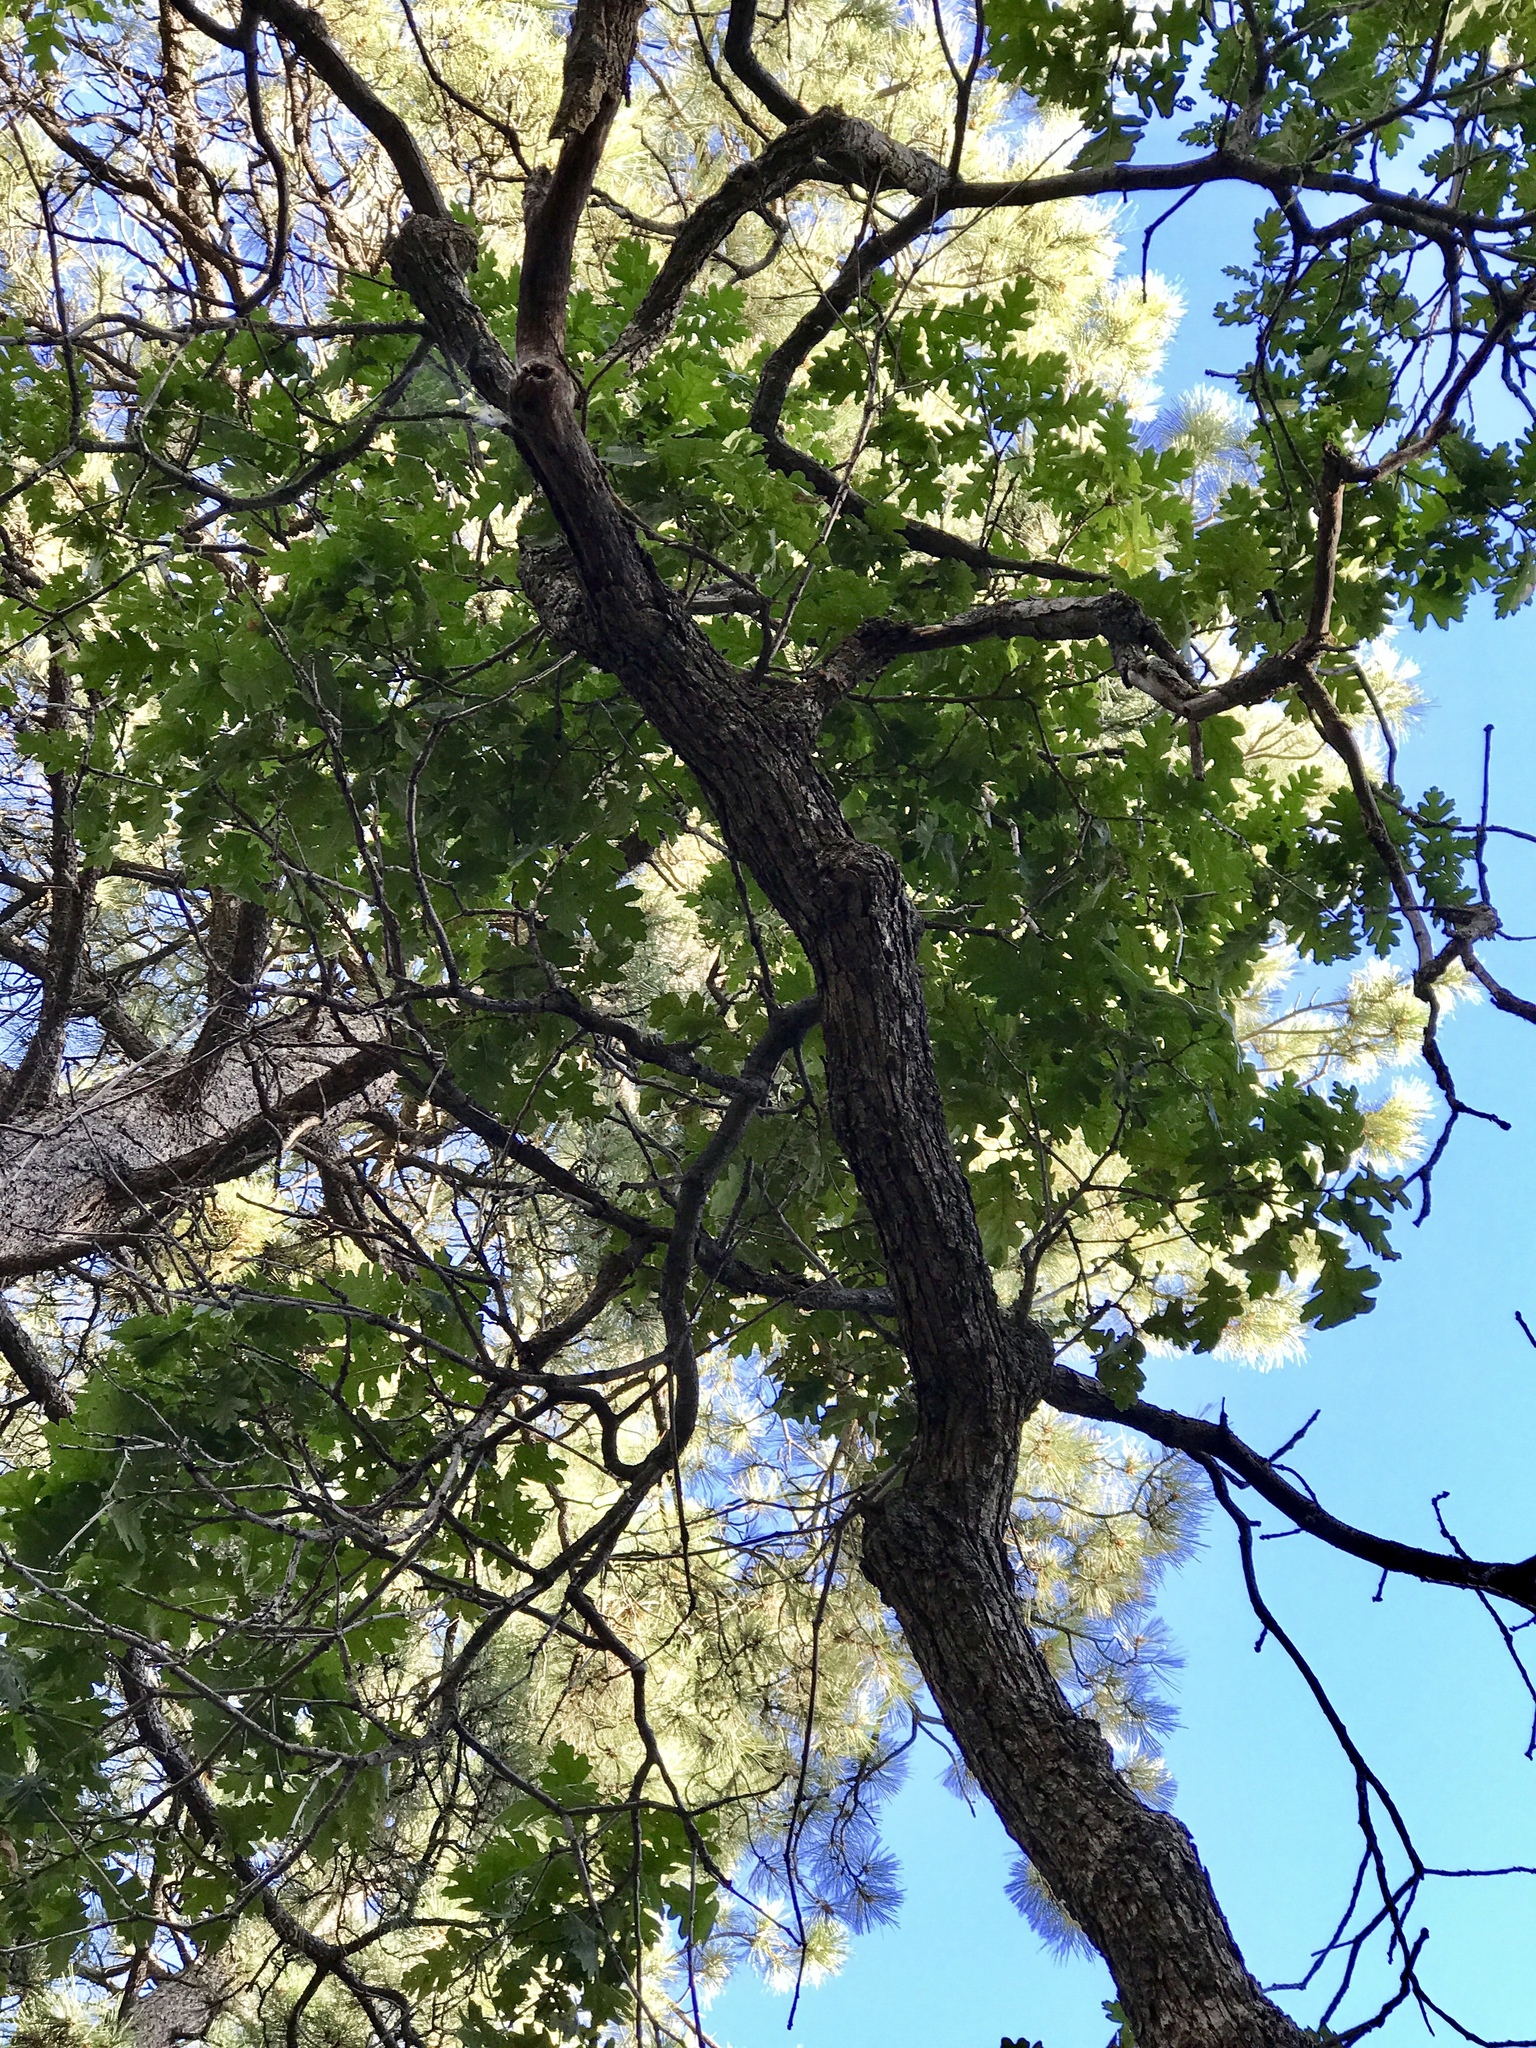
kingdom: Plantae
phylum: Tracheophyta
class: Magnoliopsida
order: Fagales
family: Fagaceae
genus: Quercus
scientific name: Quercus gambelii
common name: Gambel oak
